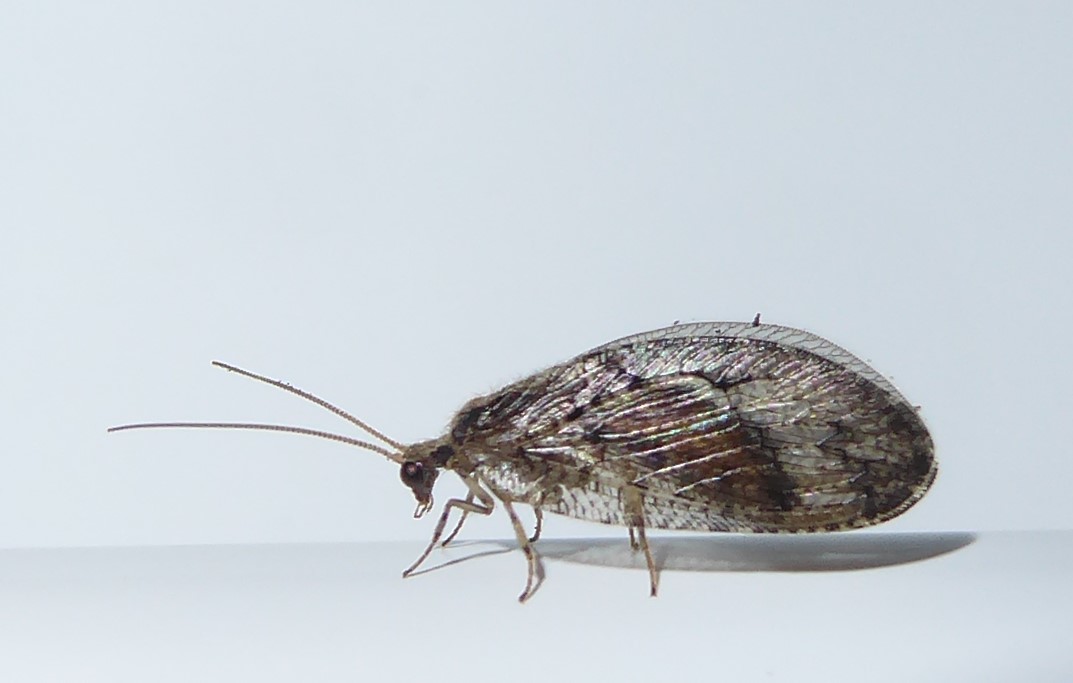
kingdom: Animalia
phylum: Arthropoda
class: Insecta
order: Neuroptera
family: Hemerobiidae
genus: Wesmaelius
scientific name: Wesmaelius subnebulosus
